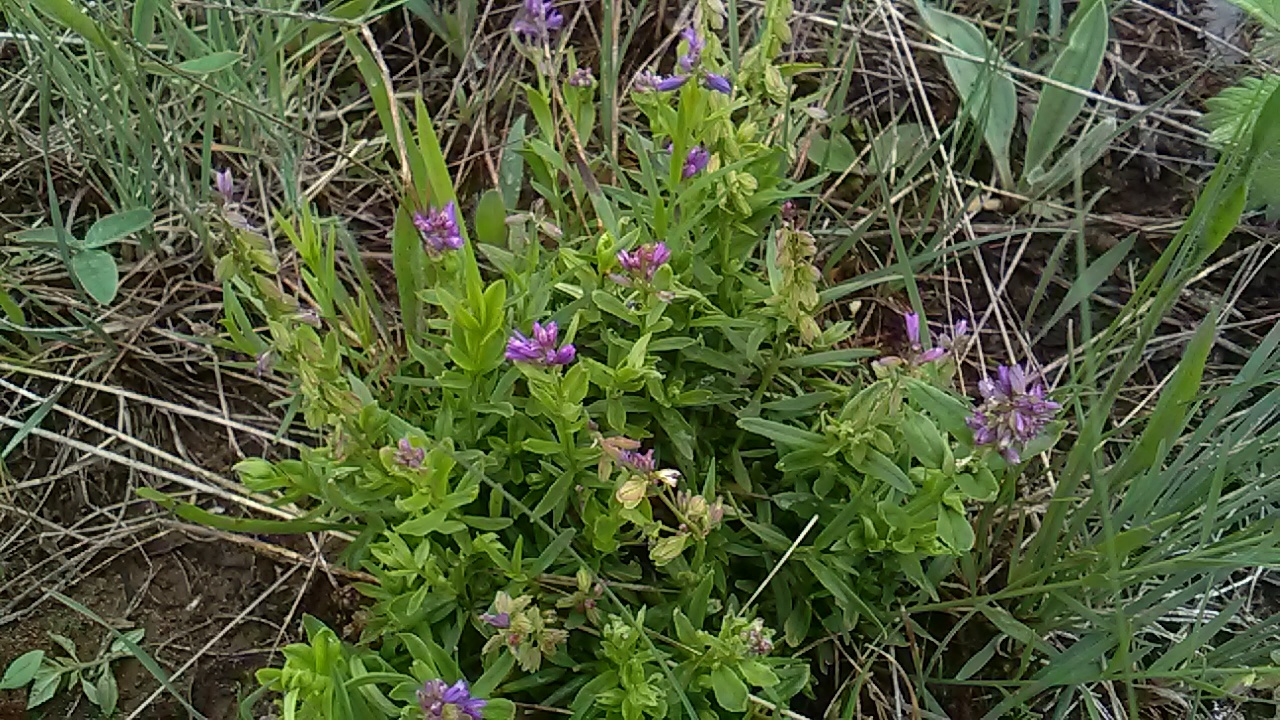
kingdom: Plantae
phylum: Tracheophyta
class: Magnoliopsida
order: Fabales
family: Polygalaceae
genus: Polygala
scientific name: Polygala comosa
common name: Tufted milkwort
